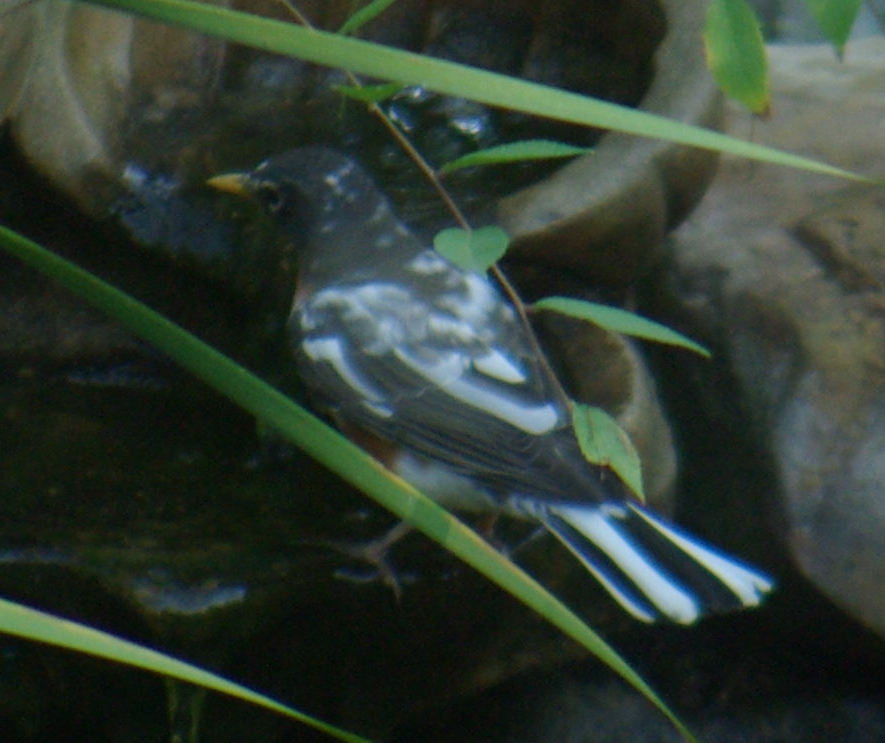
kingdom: Animalia
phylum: Chordata
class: Aves
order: Passeriformes
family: Turdidae
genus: Turdus
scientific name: Turdus migratorius
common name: American robin
